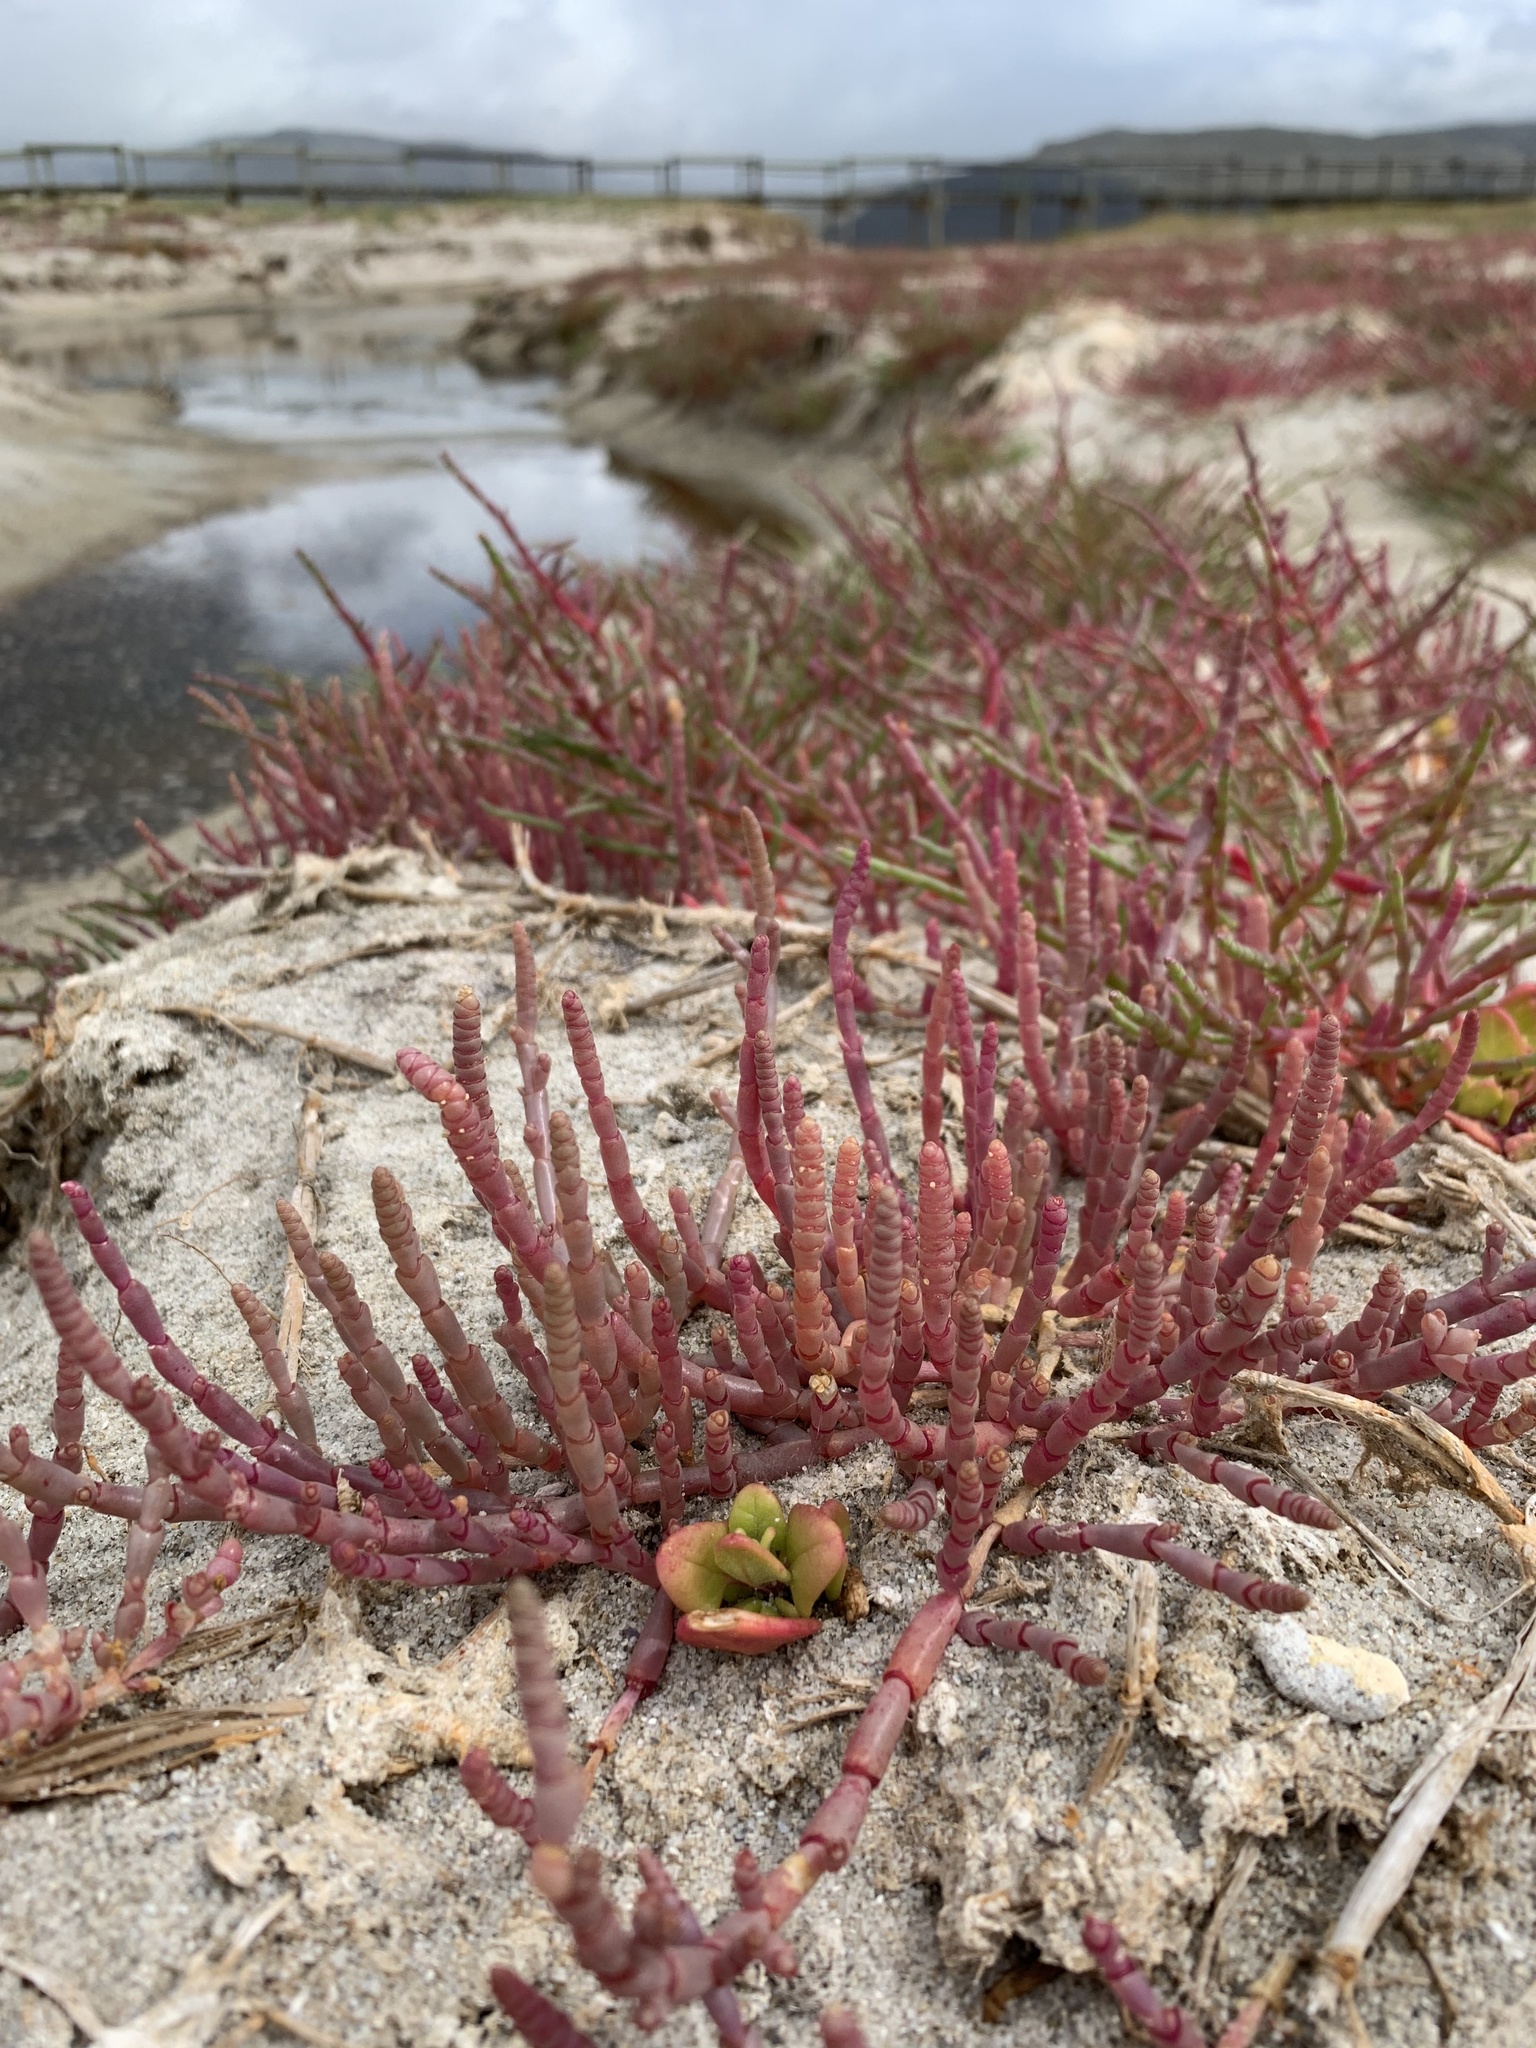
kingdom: Plantae
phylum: Tracheophyta
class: Magnoliopsida
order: Caryophyllales
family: Amaranthaceae
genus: Salicornia
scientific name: Salicornia meyeriana
